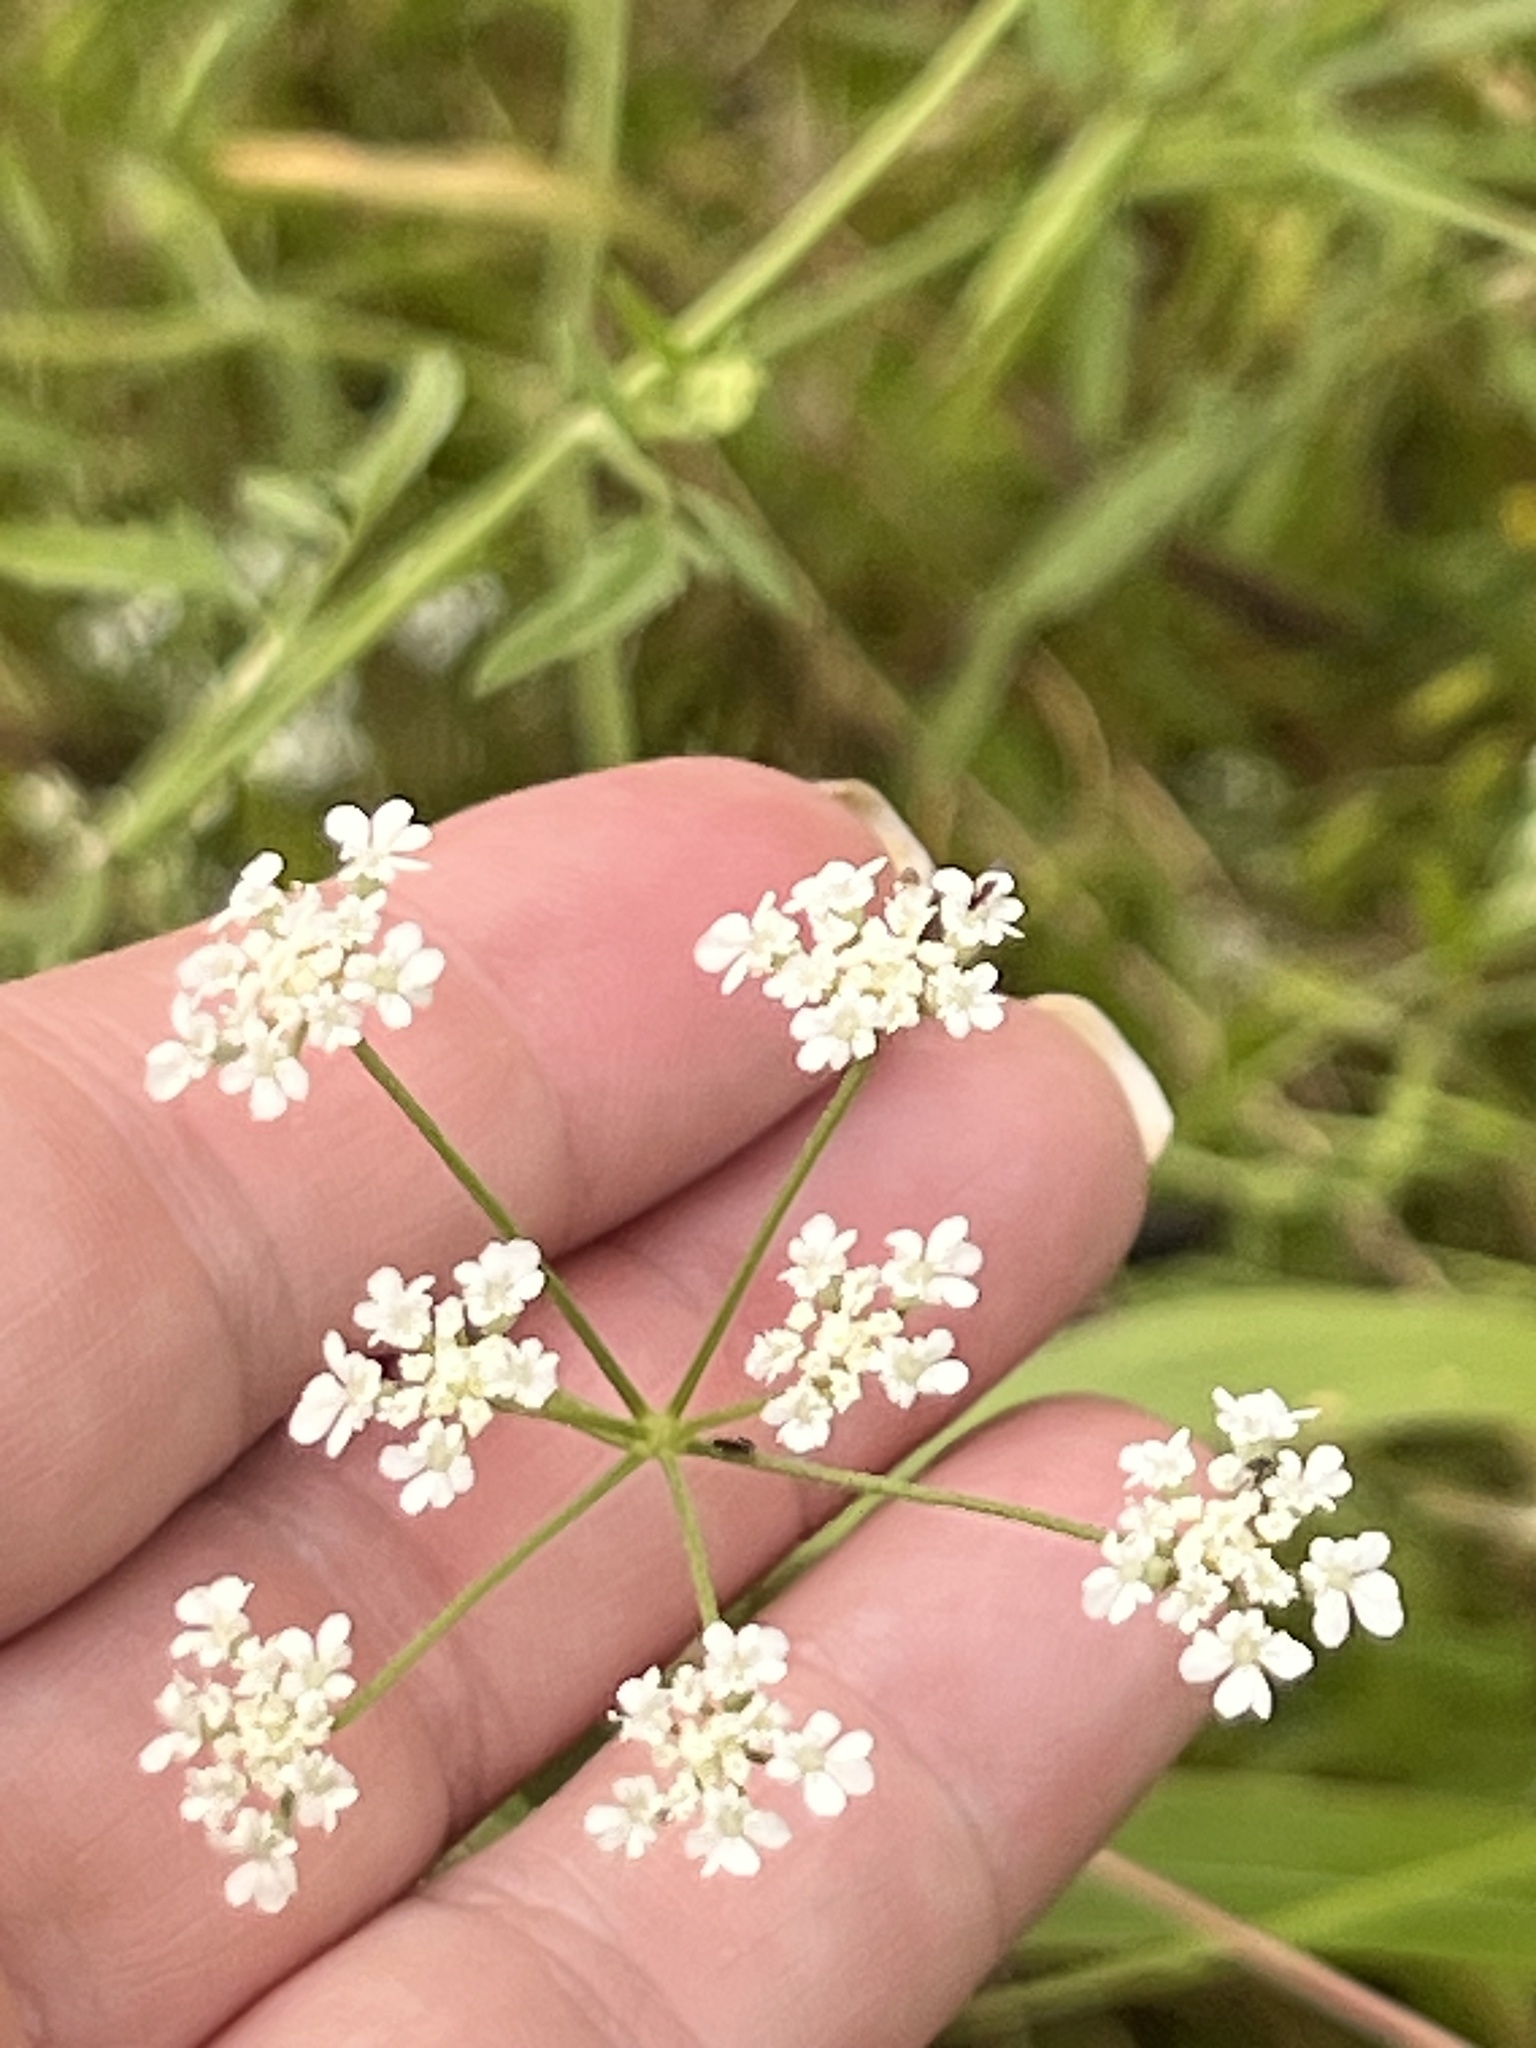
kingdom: Plantae
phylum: Tracheophyta
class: Magnoliopsida
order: Apiales
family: Apiaceae
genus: Torilis
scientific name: Torilis arvensis
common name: Spreading hedge-parsley
